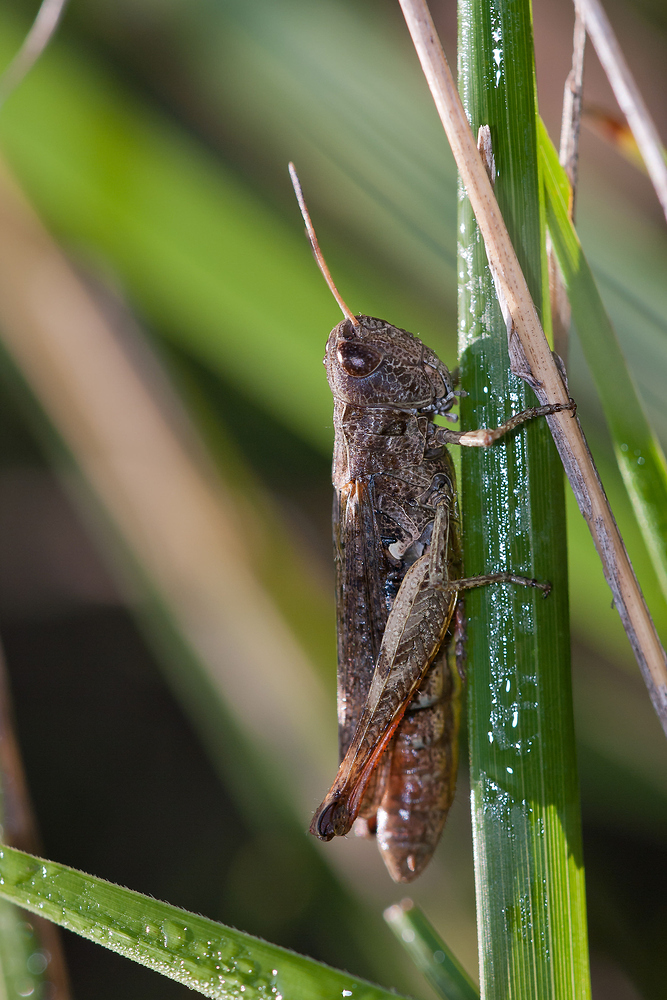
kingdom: Animalia
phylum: Arthropoda
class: Insecta
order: Orthoptera
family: Acrididae
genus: Gomphocerippus
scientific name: Gomphocerippus rufus
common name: Rufous grasshopper
